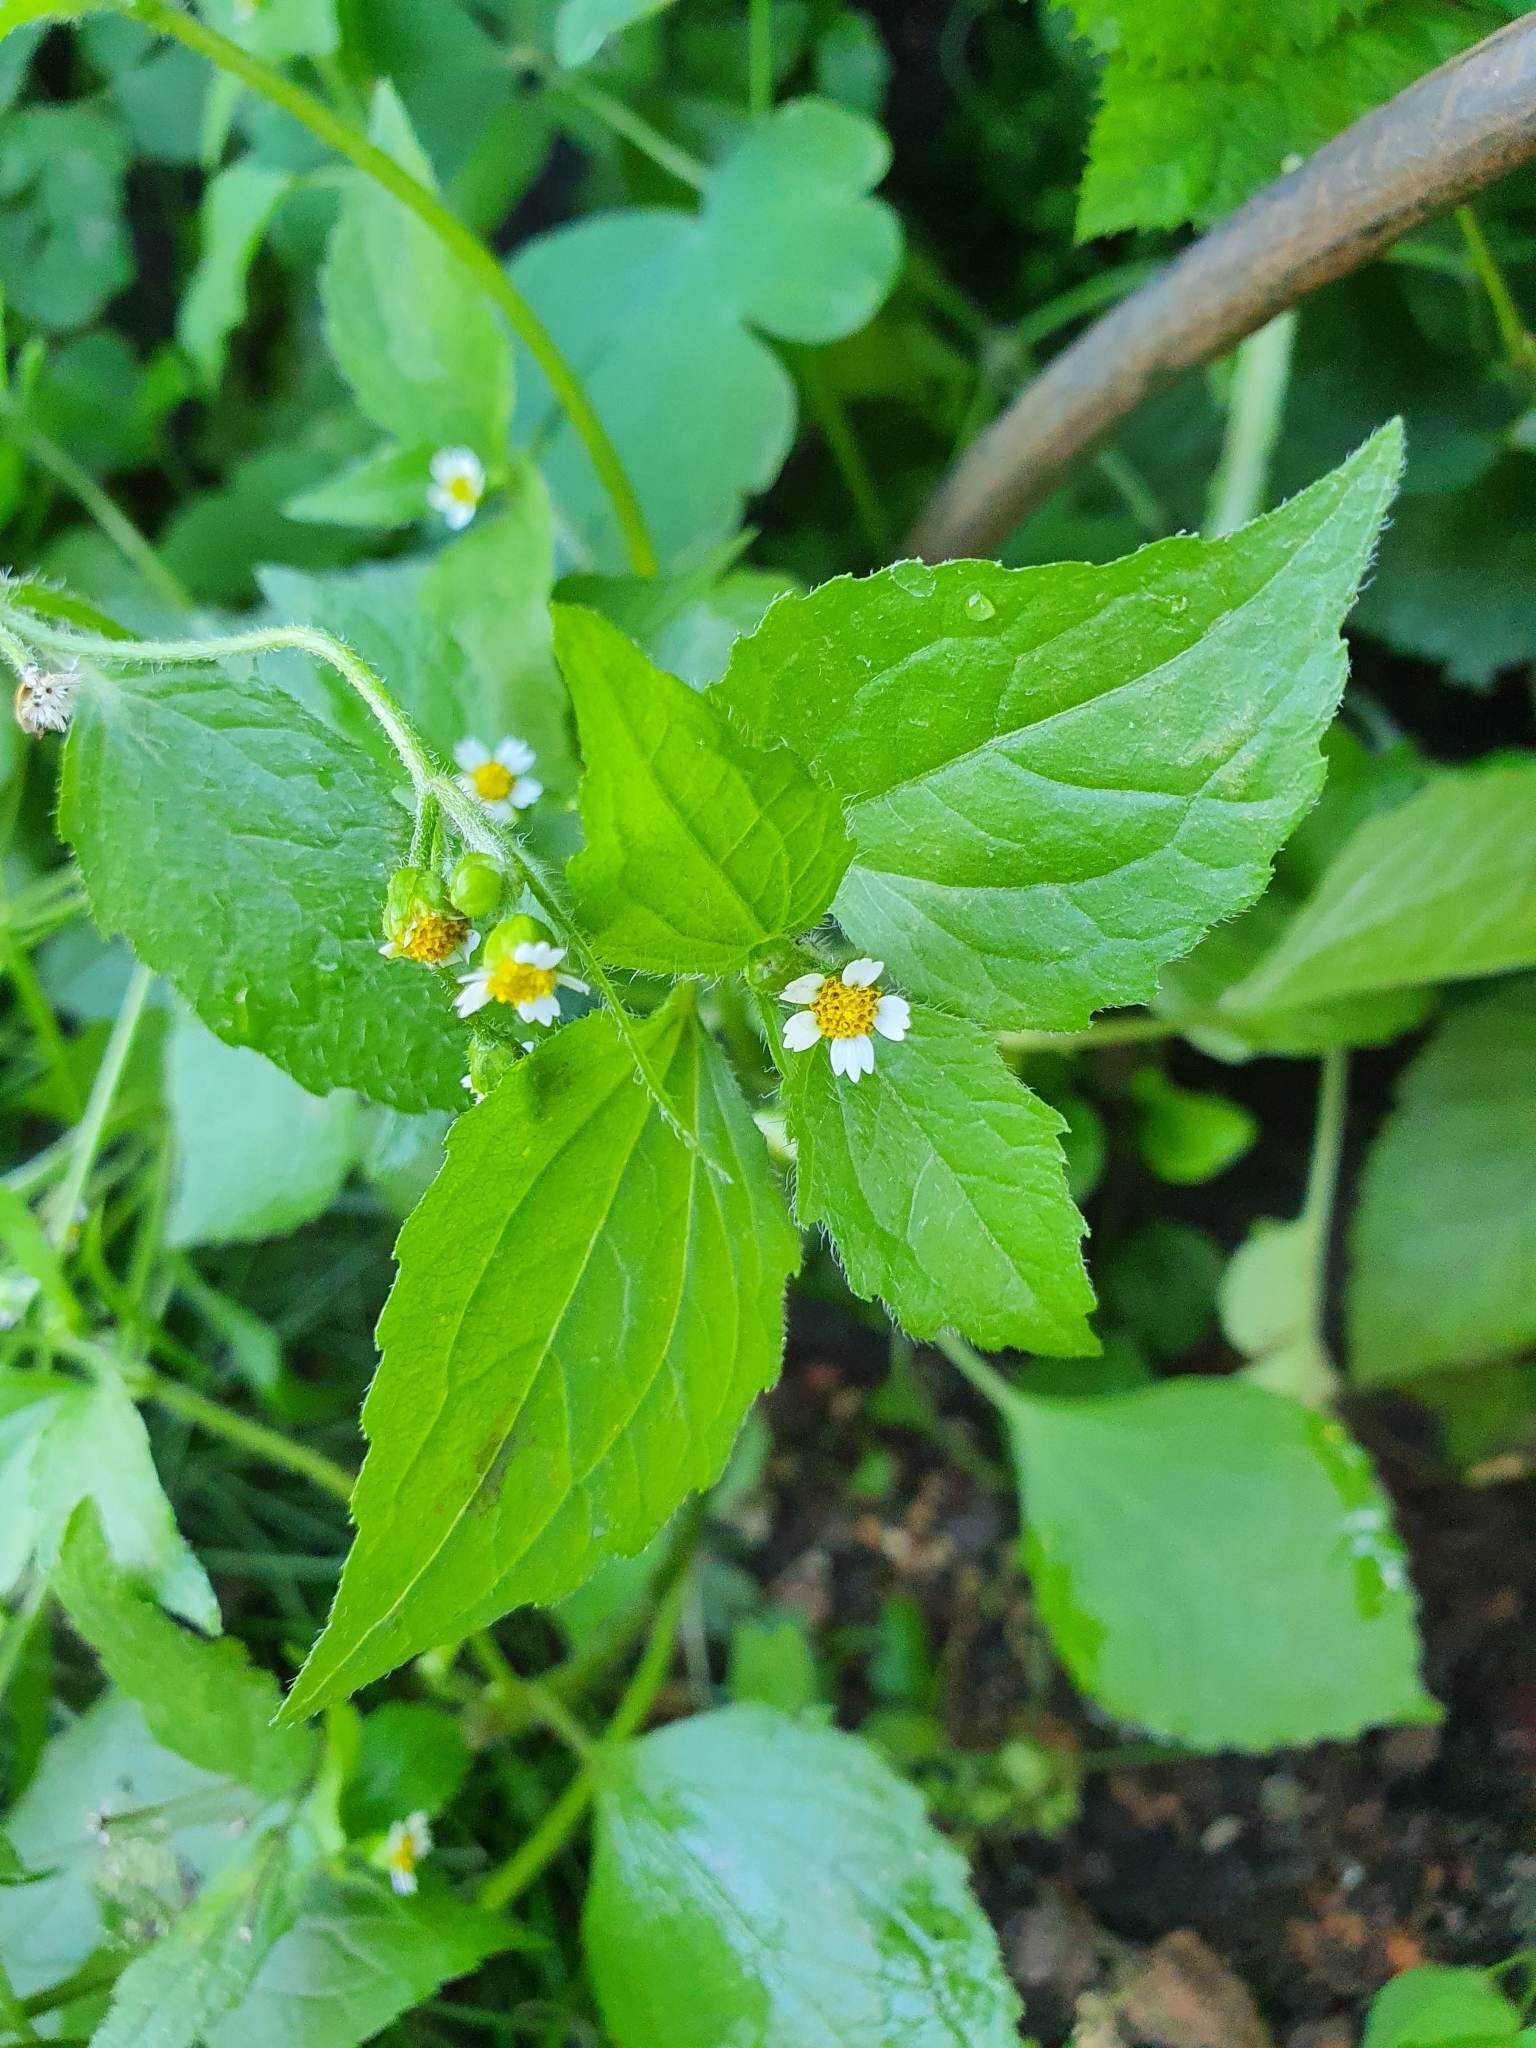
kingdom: Plantae
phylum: Tracheophyta
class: Magnoliopsida
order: Asterales
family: Asteraceae
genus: Galinsoga
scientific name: Galinsoga quadriradiata
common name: Shaggy soldier
